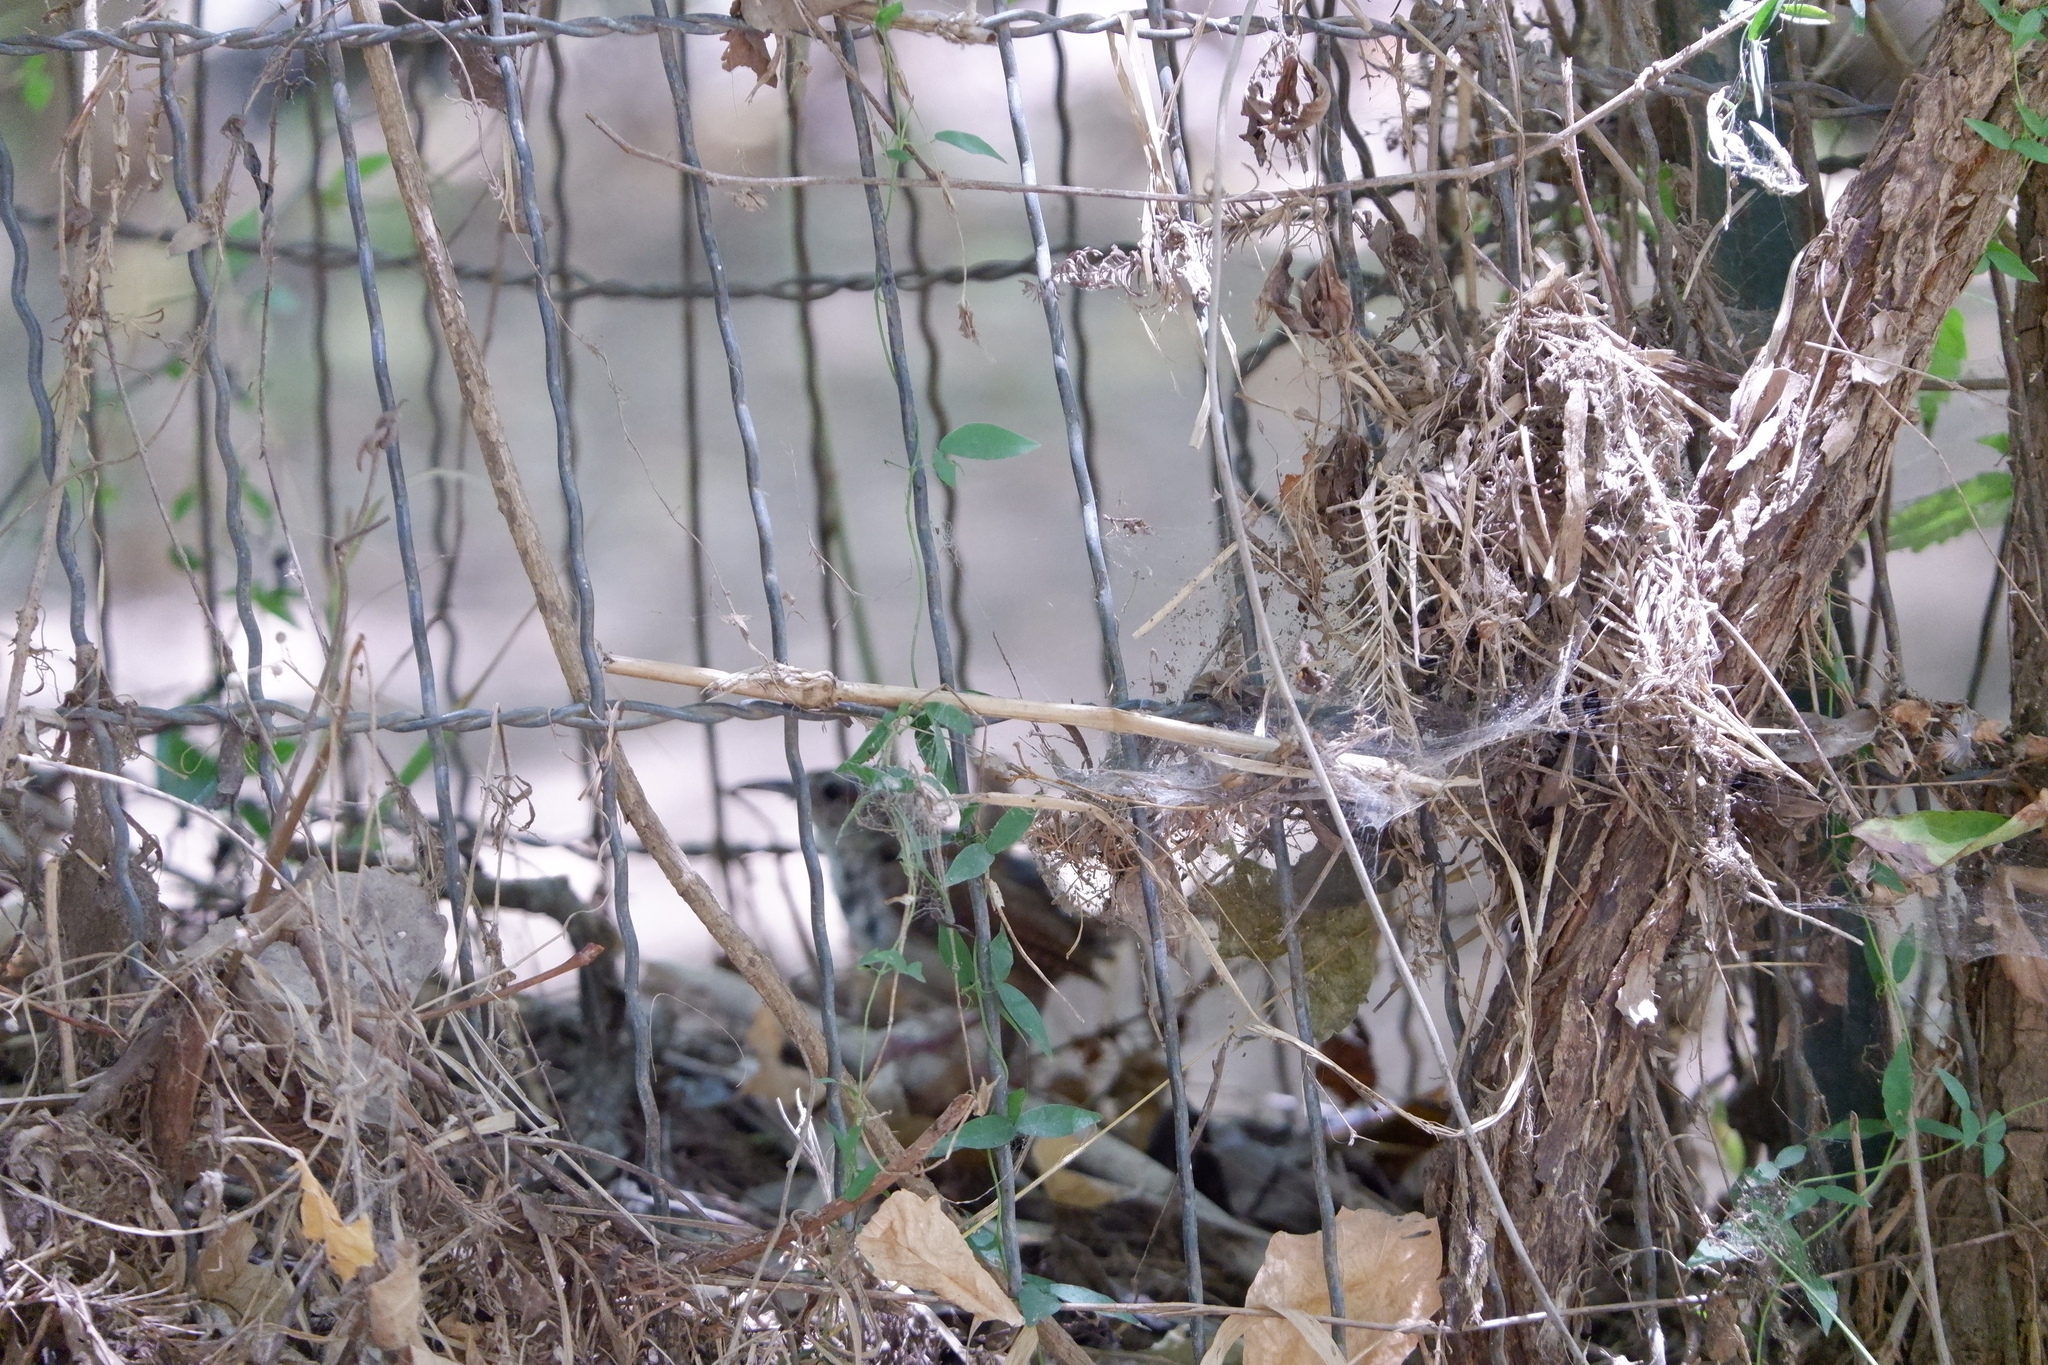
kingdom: Animalia
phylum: Chordata
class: Aves
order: Passeriformes
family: Troglodytidae
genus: Thryothorus
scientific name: Thryothorus ludovicianus
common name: Carolina wren
